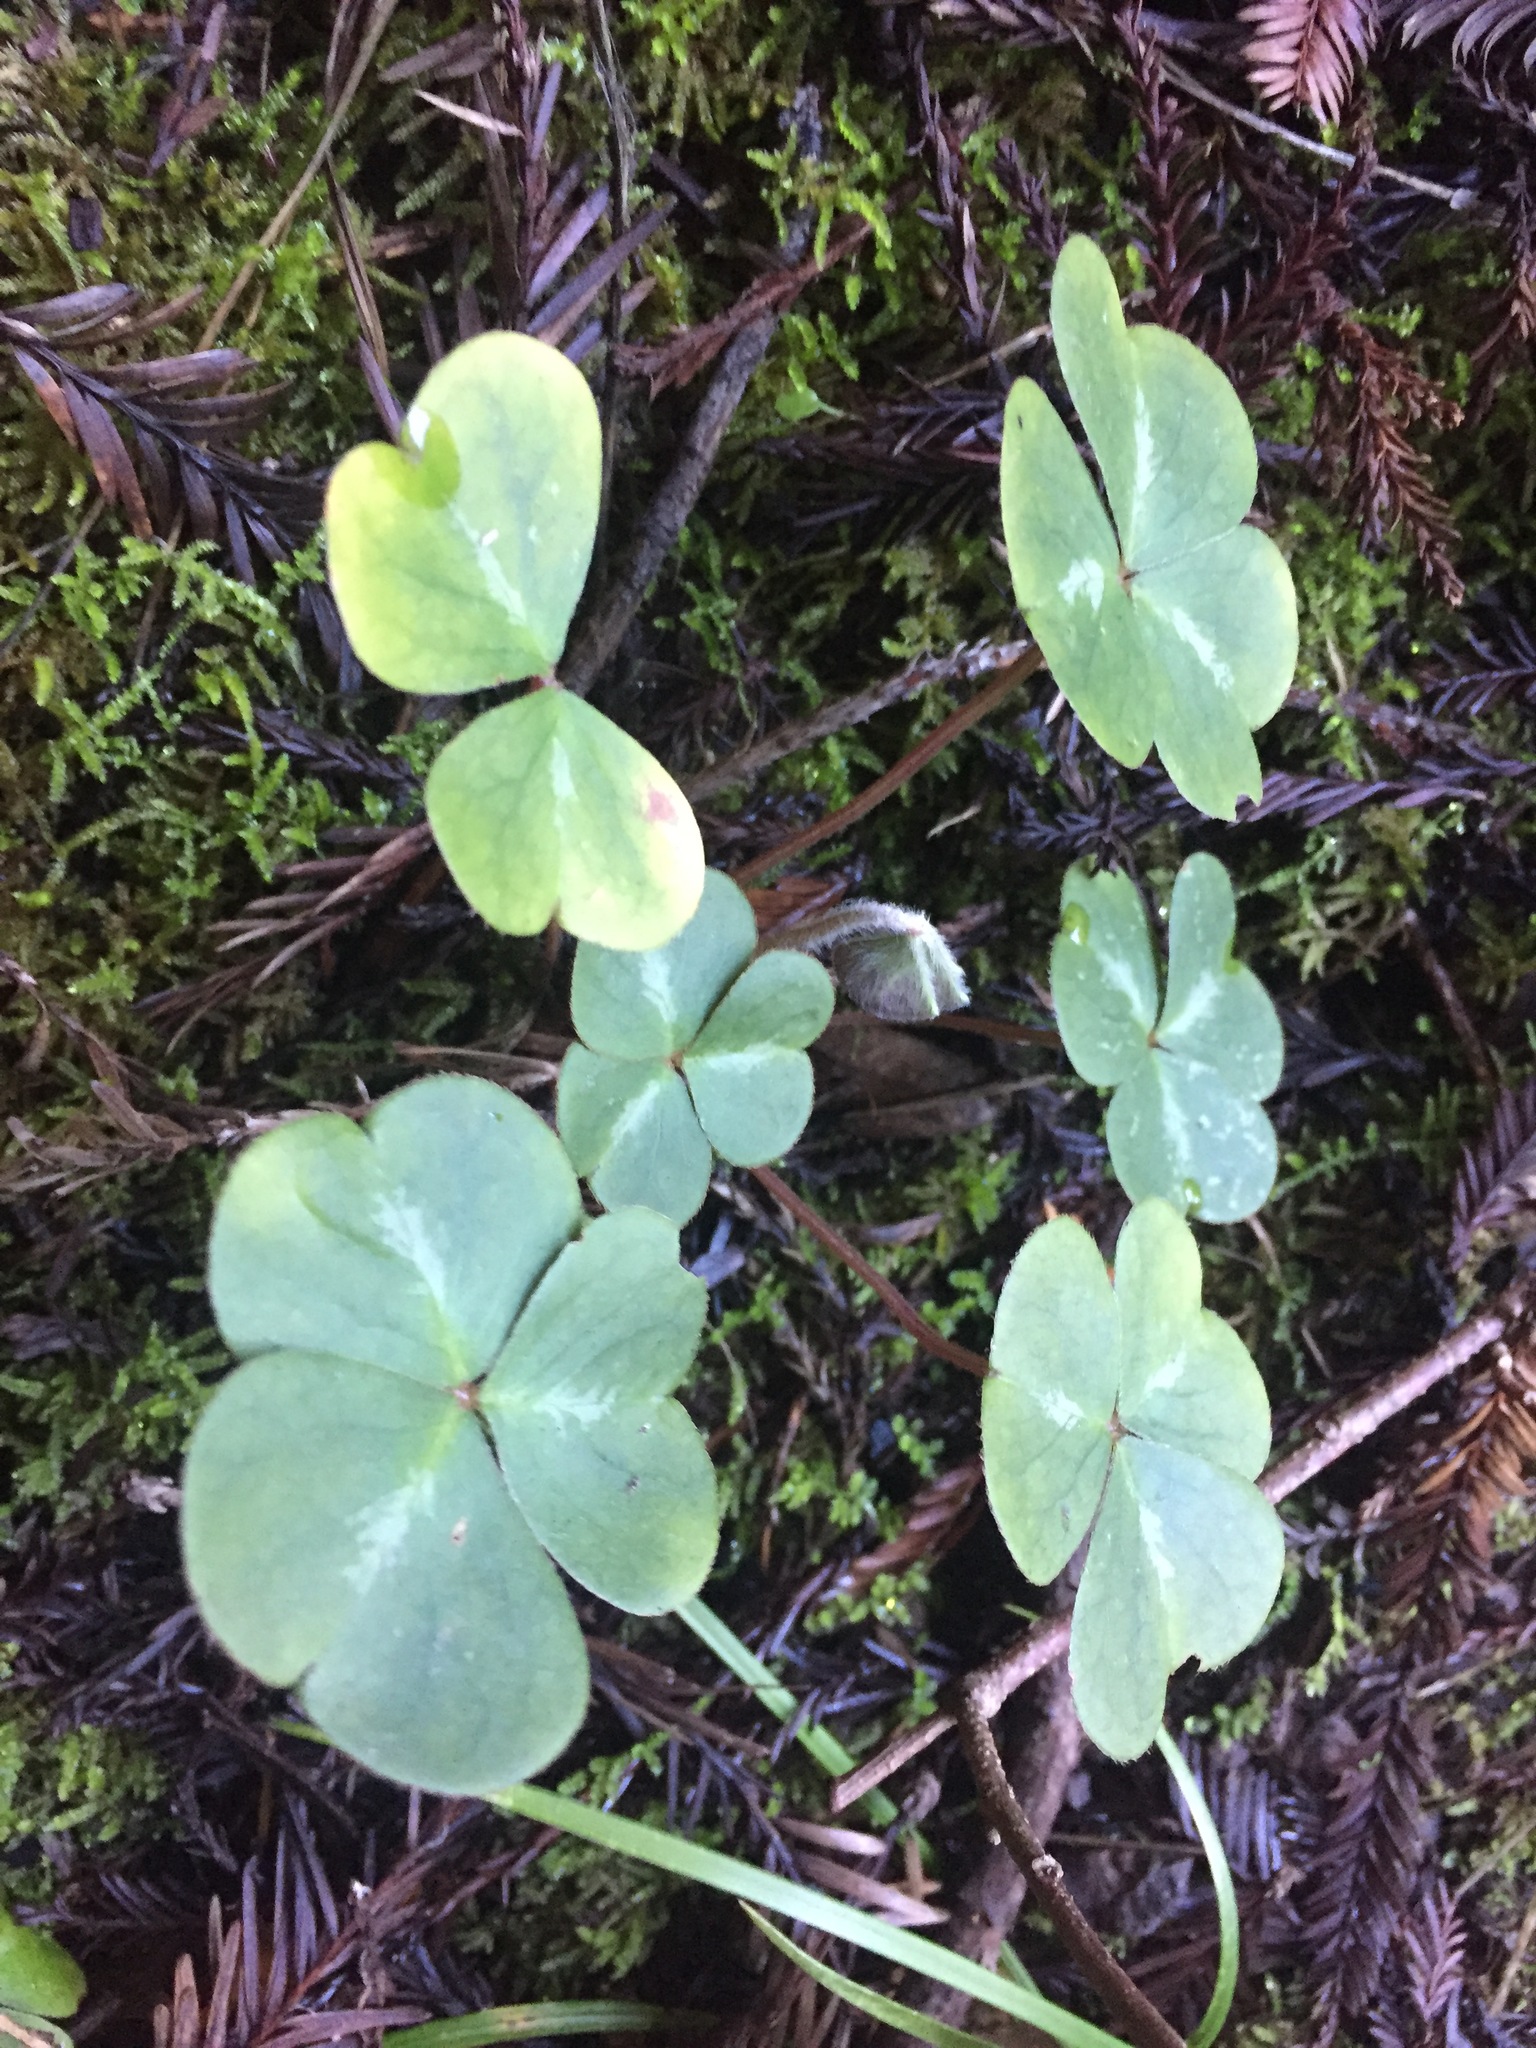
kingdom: Plantae
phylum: Tracheophyta
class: Magnoliopsida
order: Oxalidales
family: Oxalidaceae
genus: Oxalis
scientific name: Oxalis oregana
